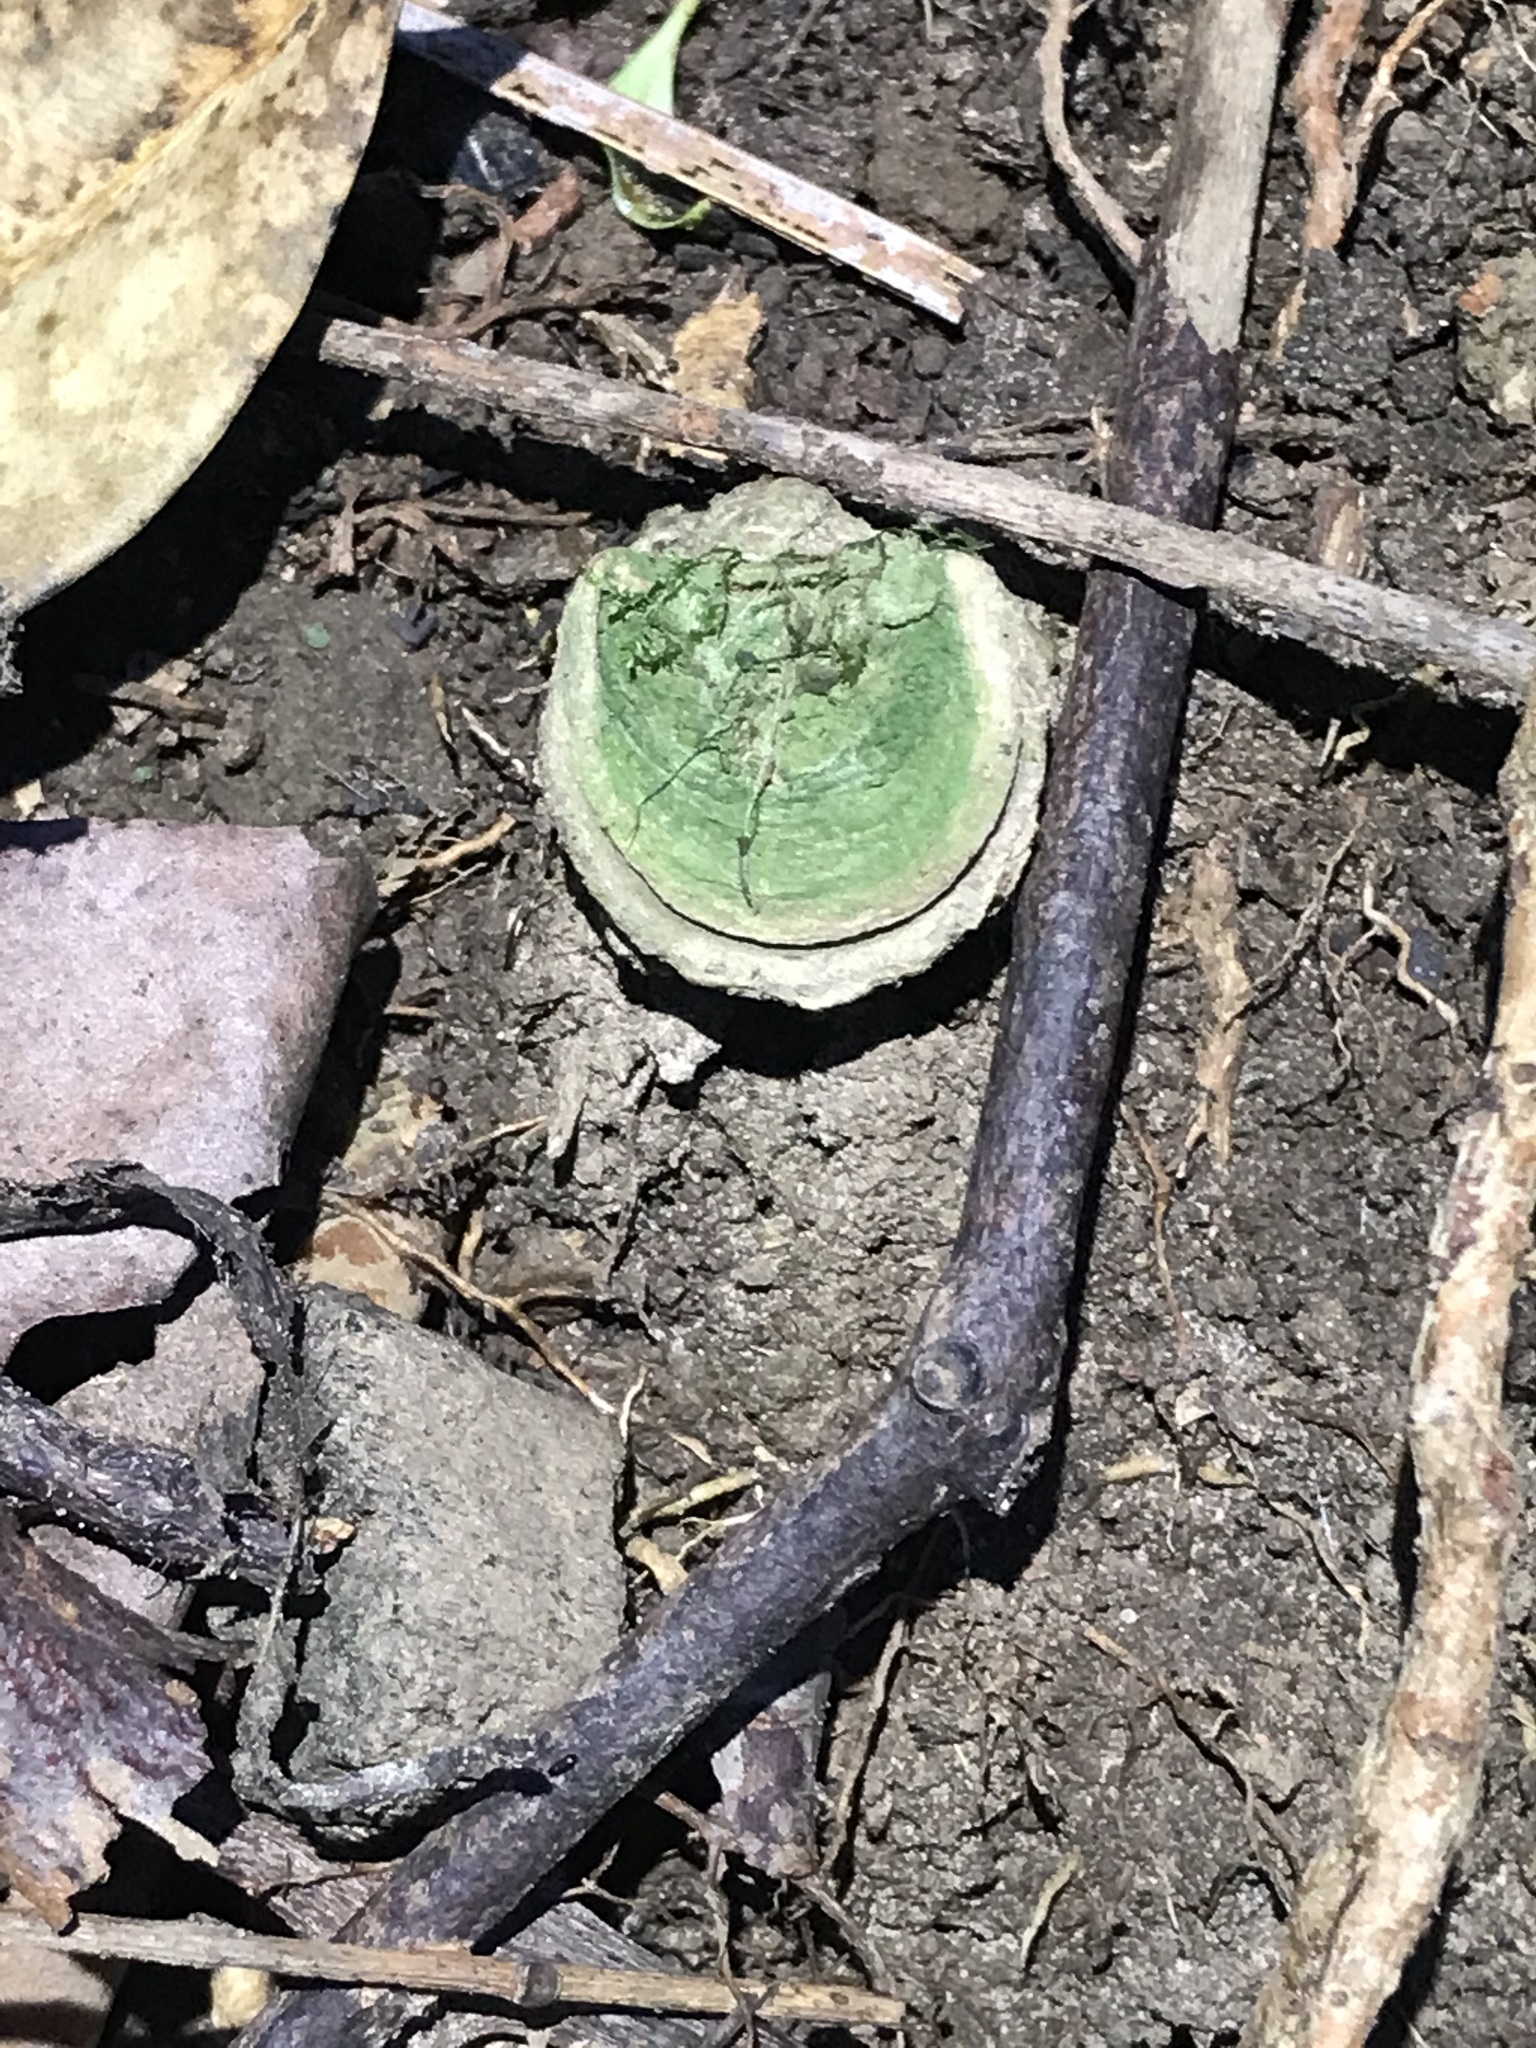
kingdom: Animalia
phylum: Arthropoda
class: Arachnida
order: Araneae
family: Idiopidae
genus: Euoplos
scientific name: Euoplos thynnearum
